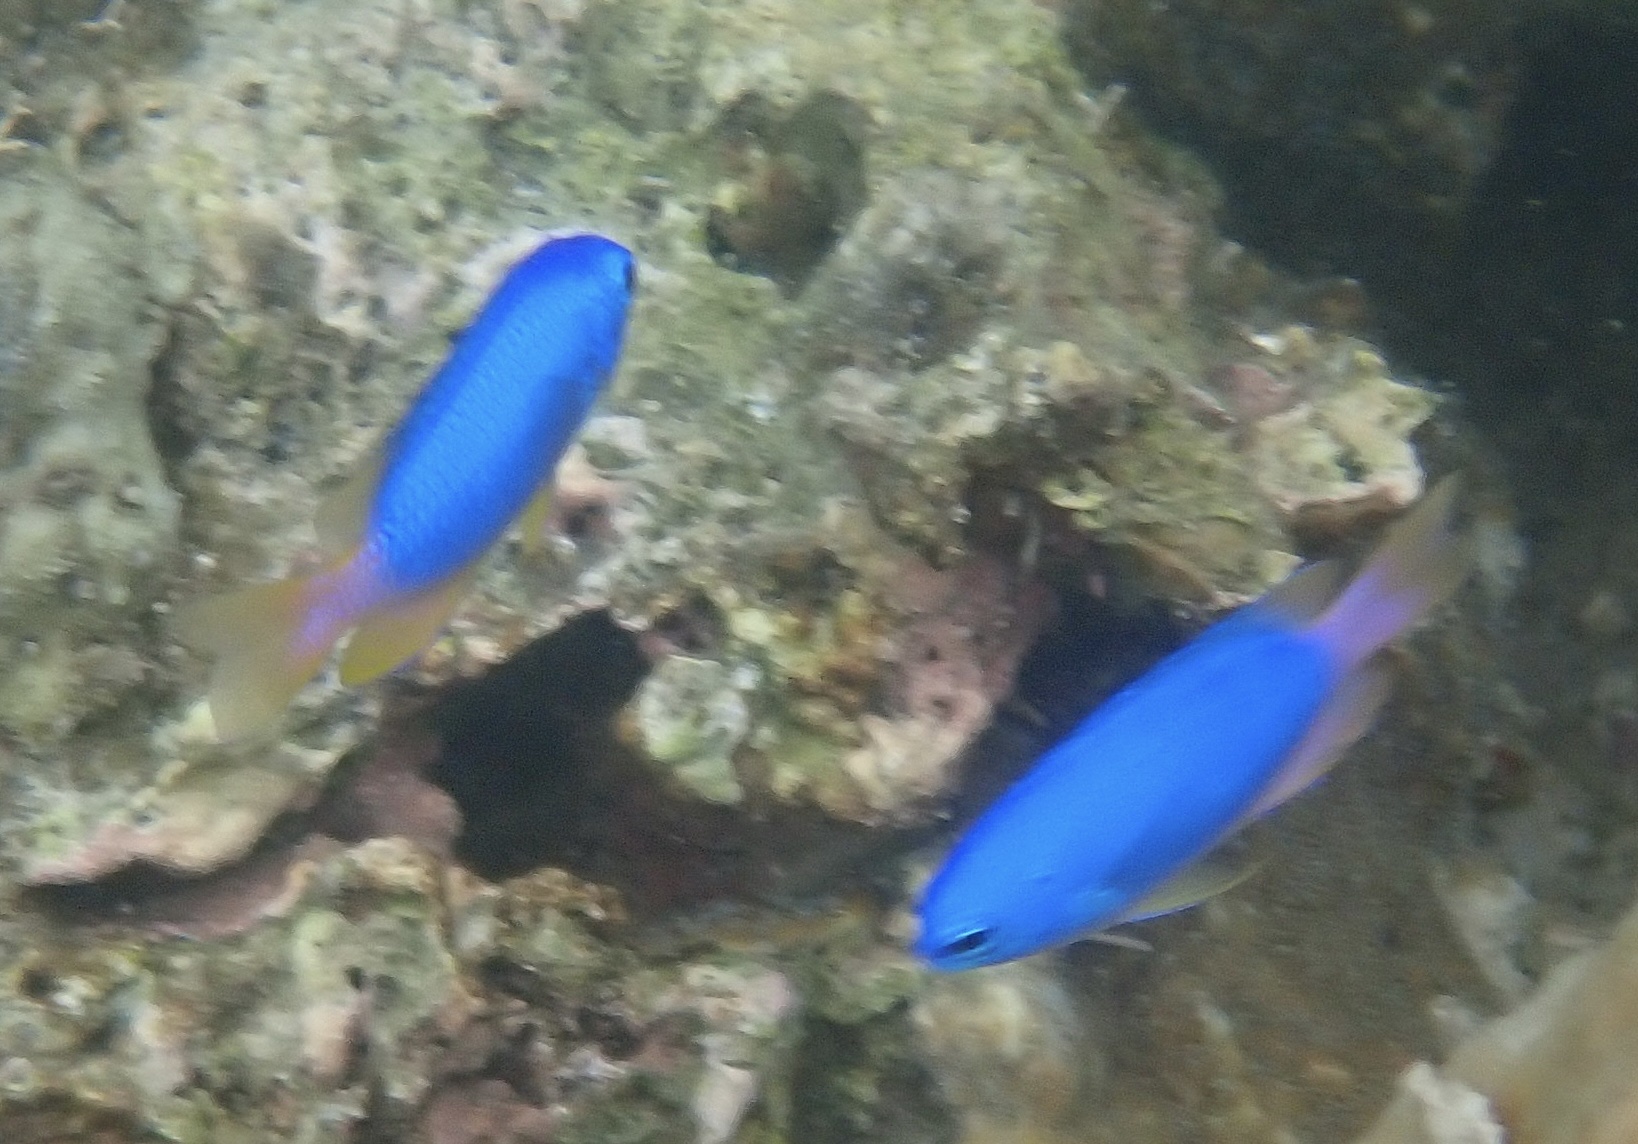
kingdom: Animalia
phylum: Chordata
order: Perciformes
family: Pomacentridae
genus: Pomacentrus
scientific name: Pomacentrus coelestis
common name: Neon damsel
